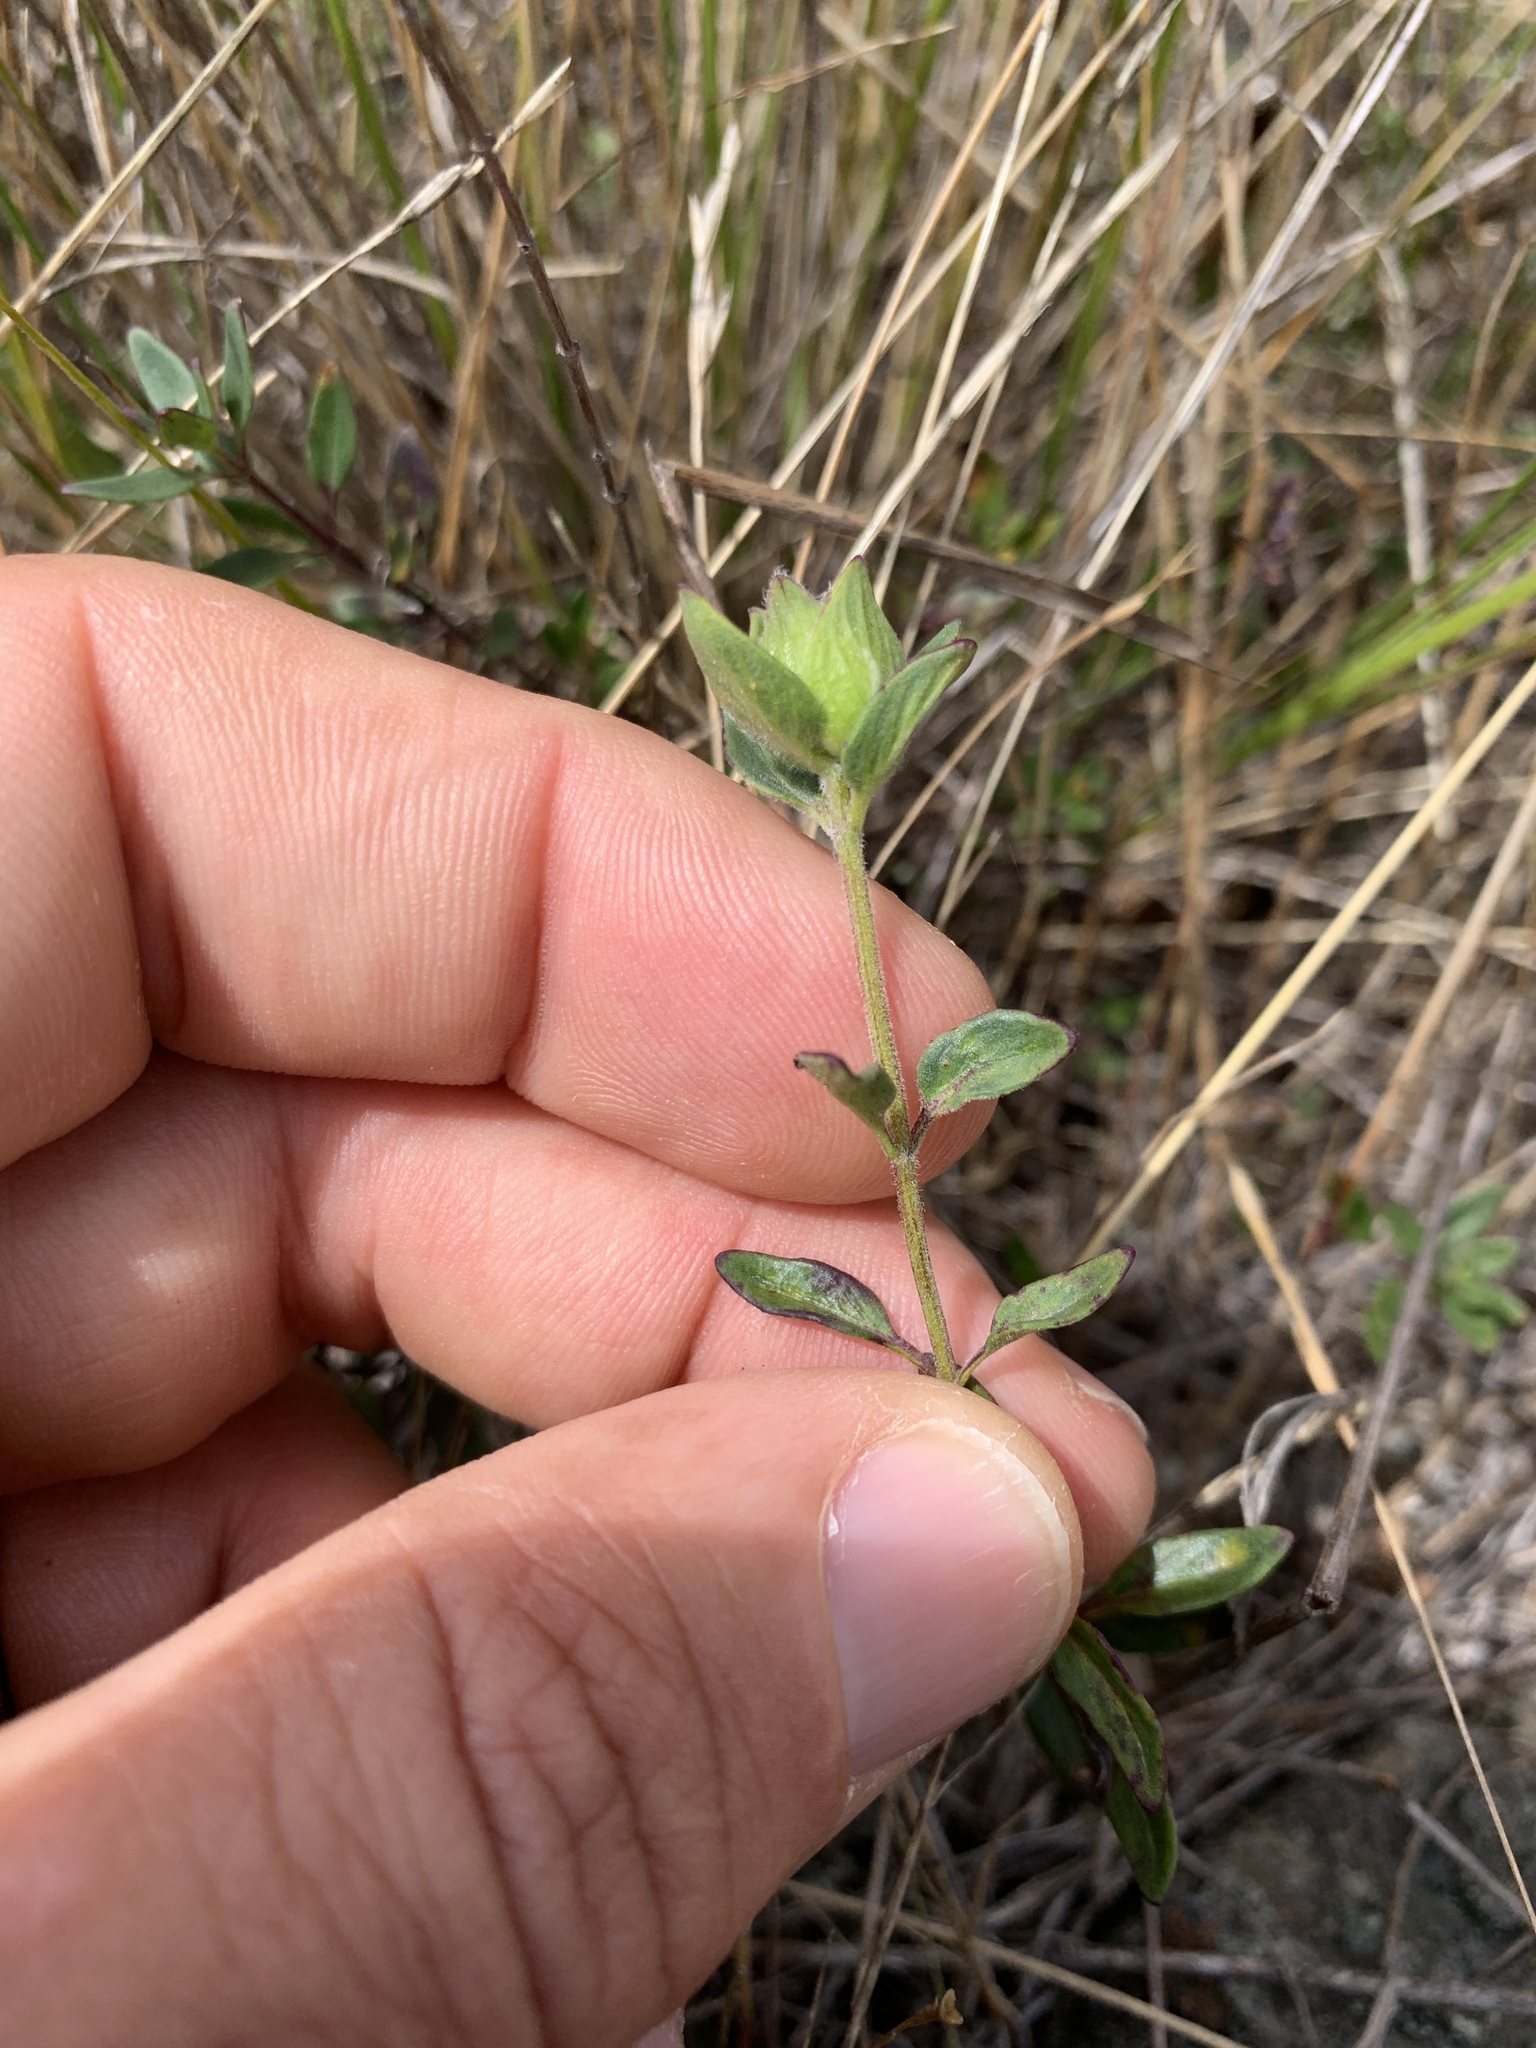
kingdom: Plantae
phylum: Tracheophyta
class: Magnoliopsida
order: Lamiales
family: Lamiaceae
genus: Monardella
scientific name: Monardella purpurea
